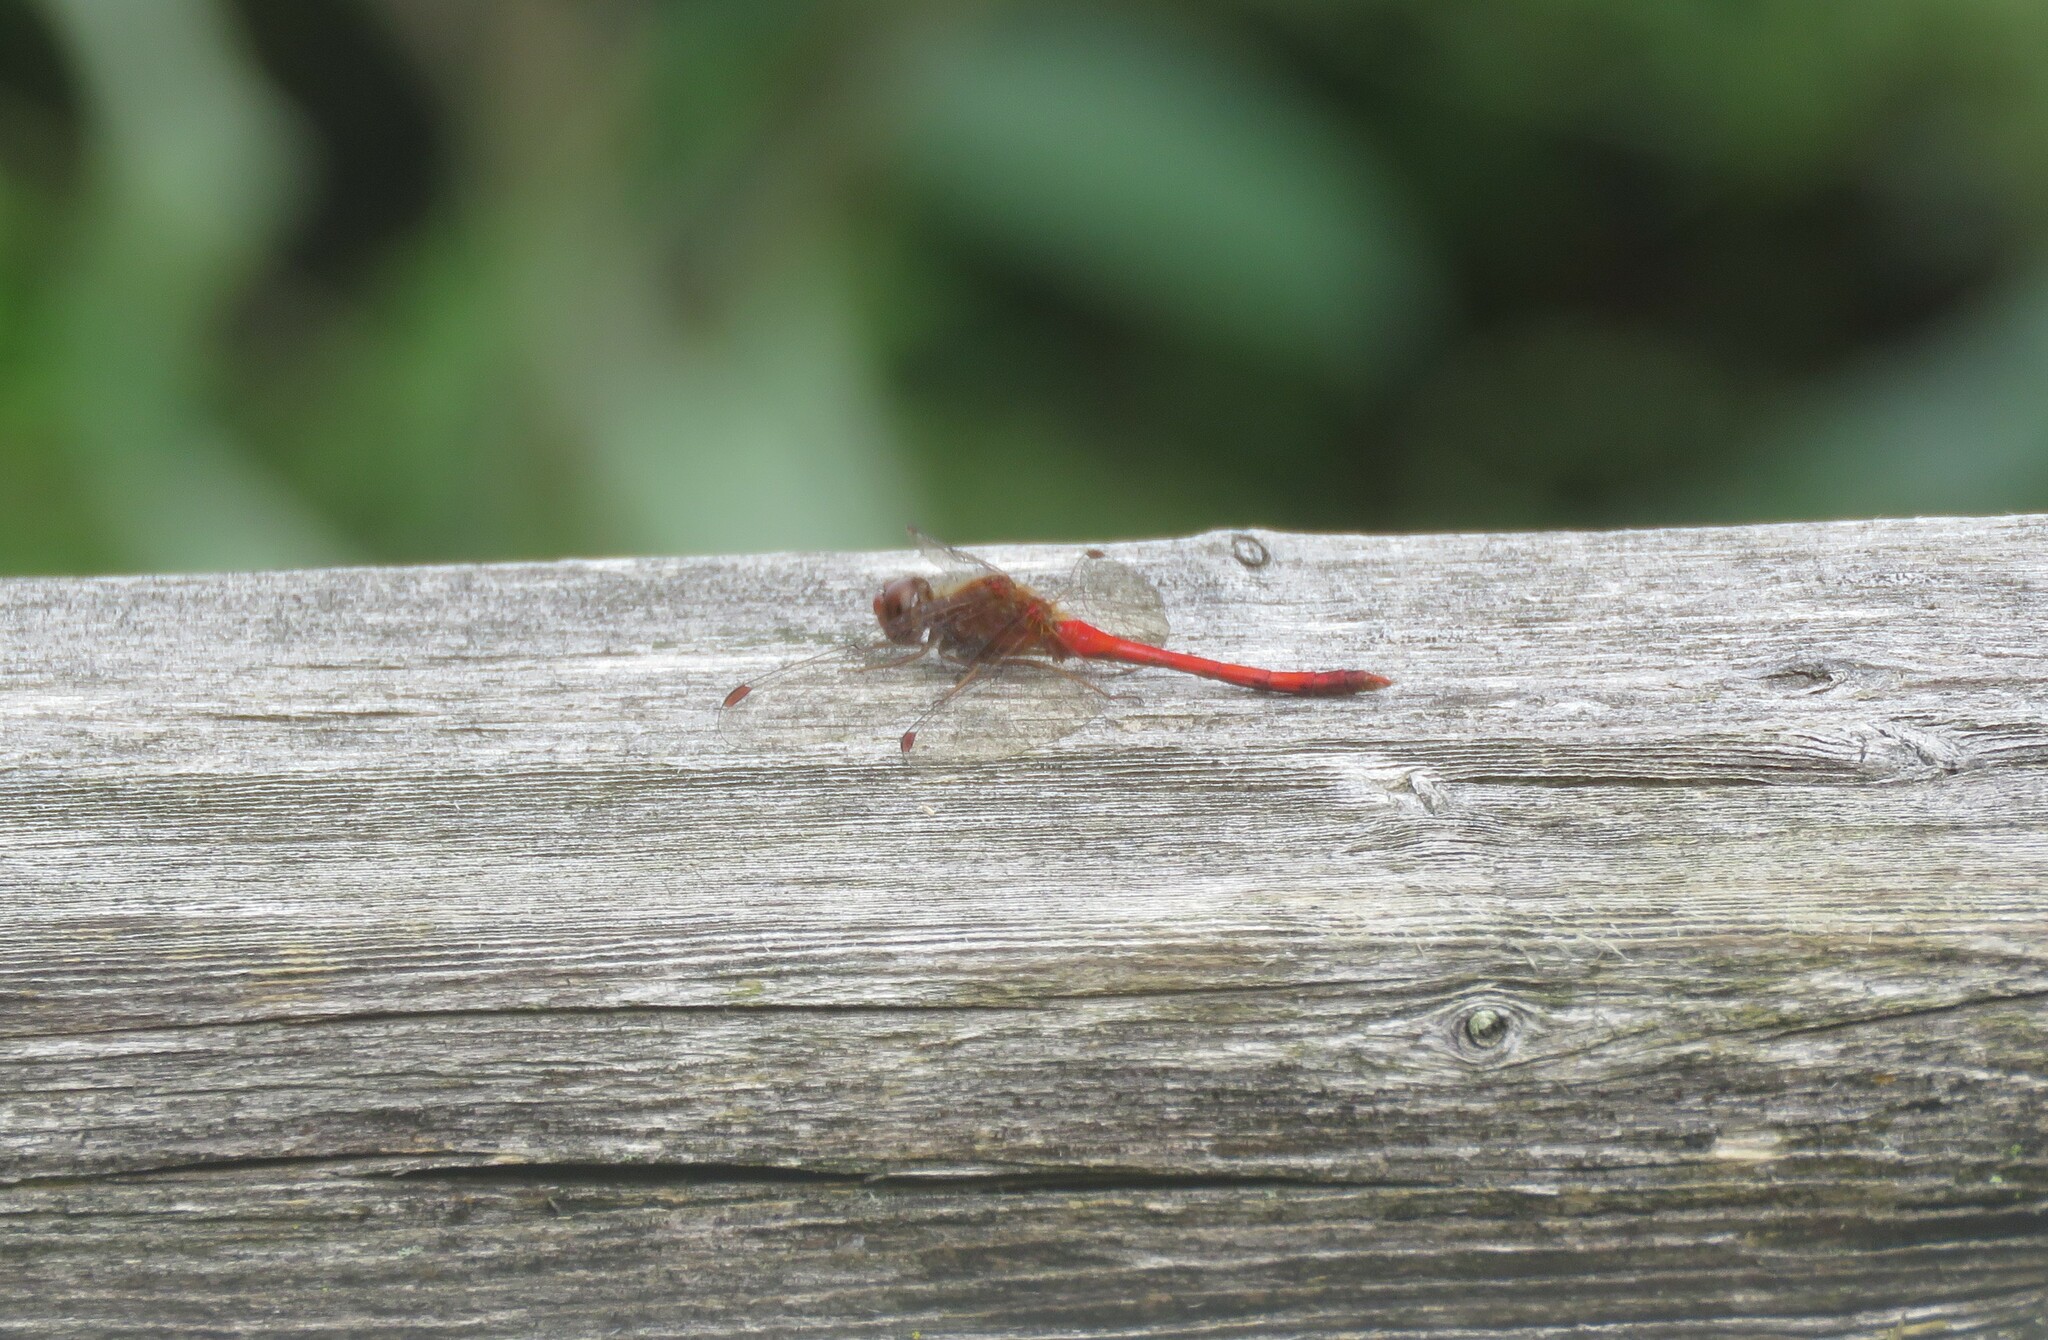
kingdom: Animalia
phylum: Arthropoda
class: Insecta
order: Odonata
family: Libellulidae
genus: Sympetrum
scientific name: Sympetrum vicinum
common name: Autumn meadowhawk
